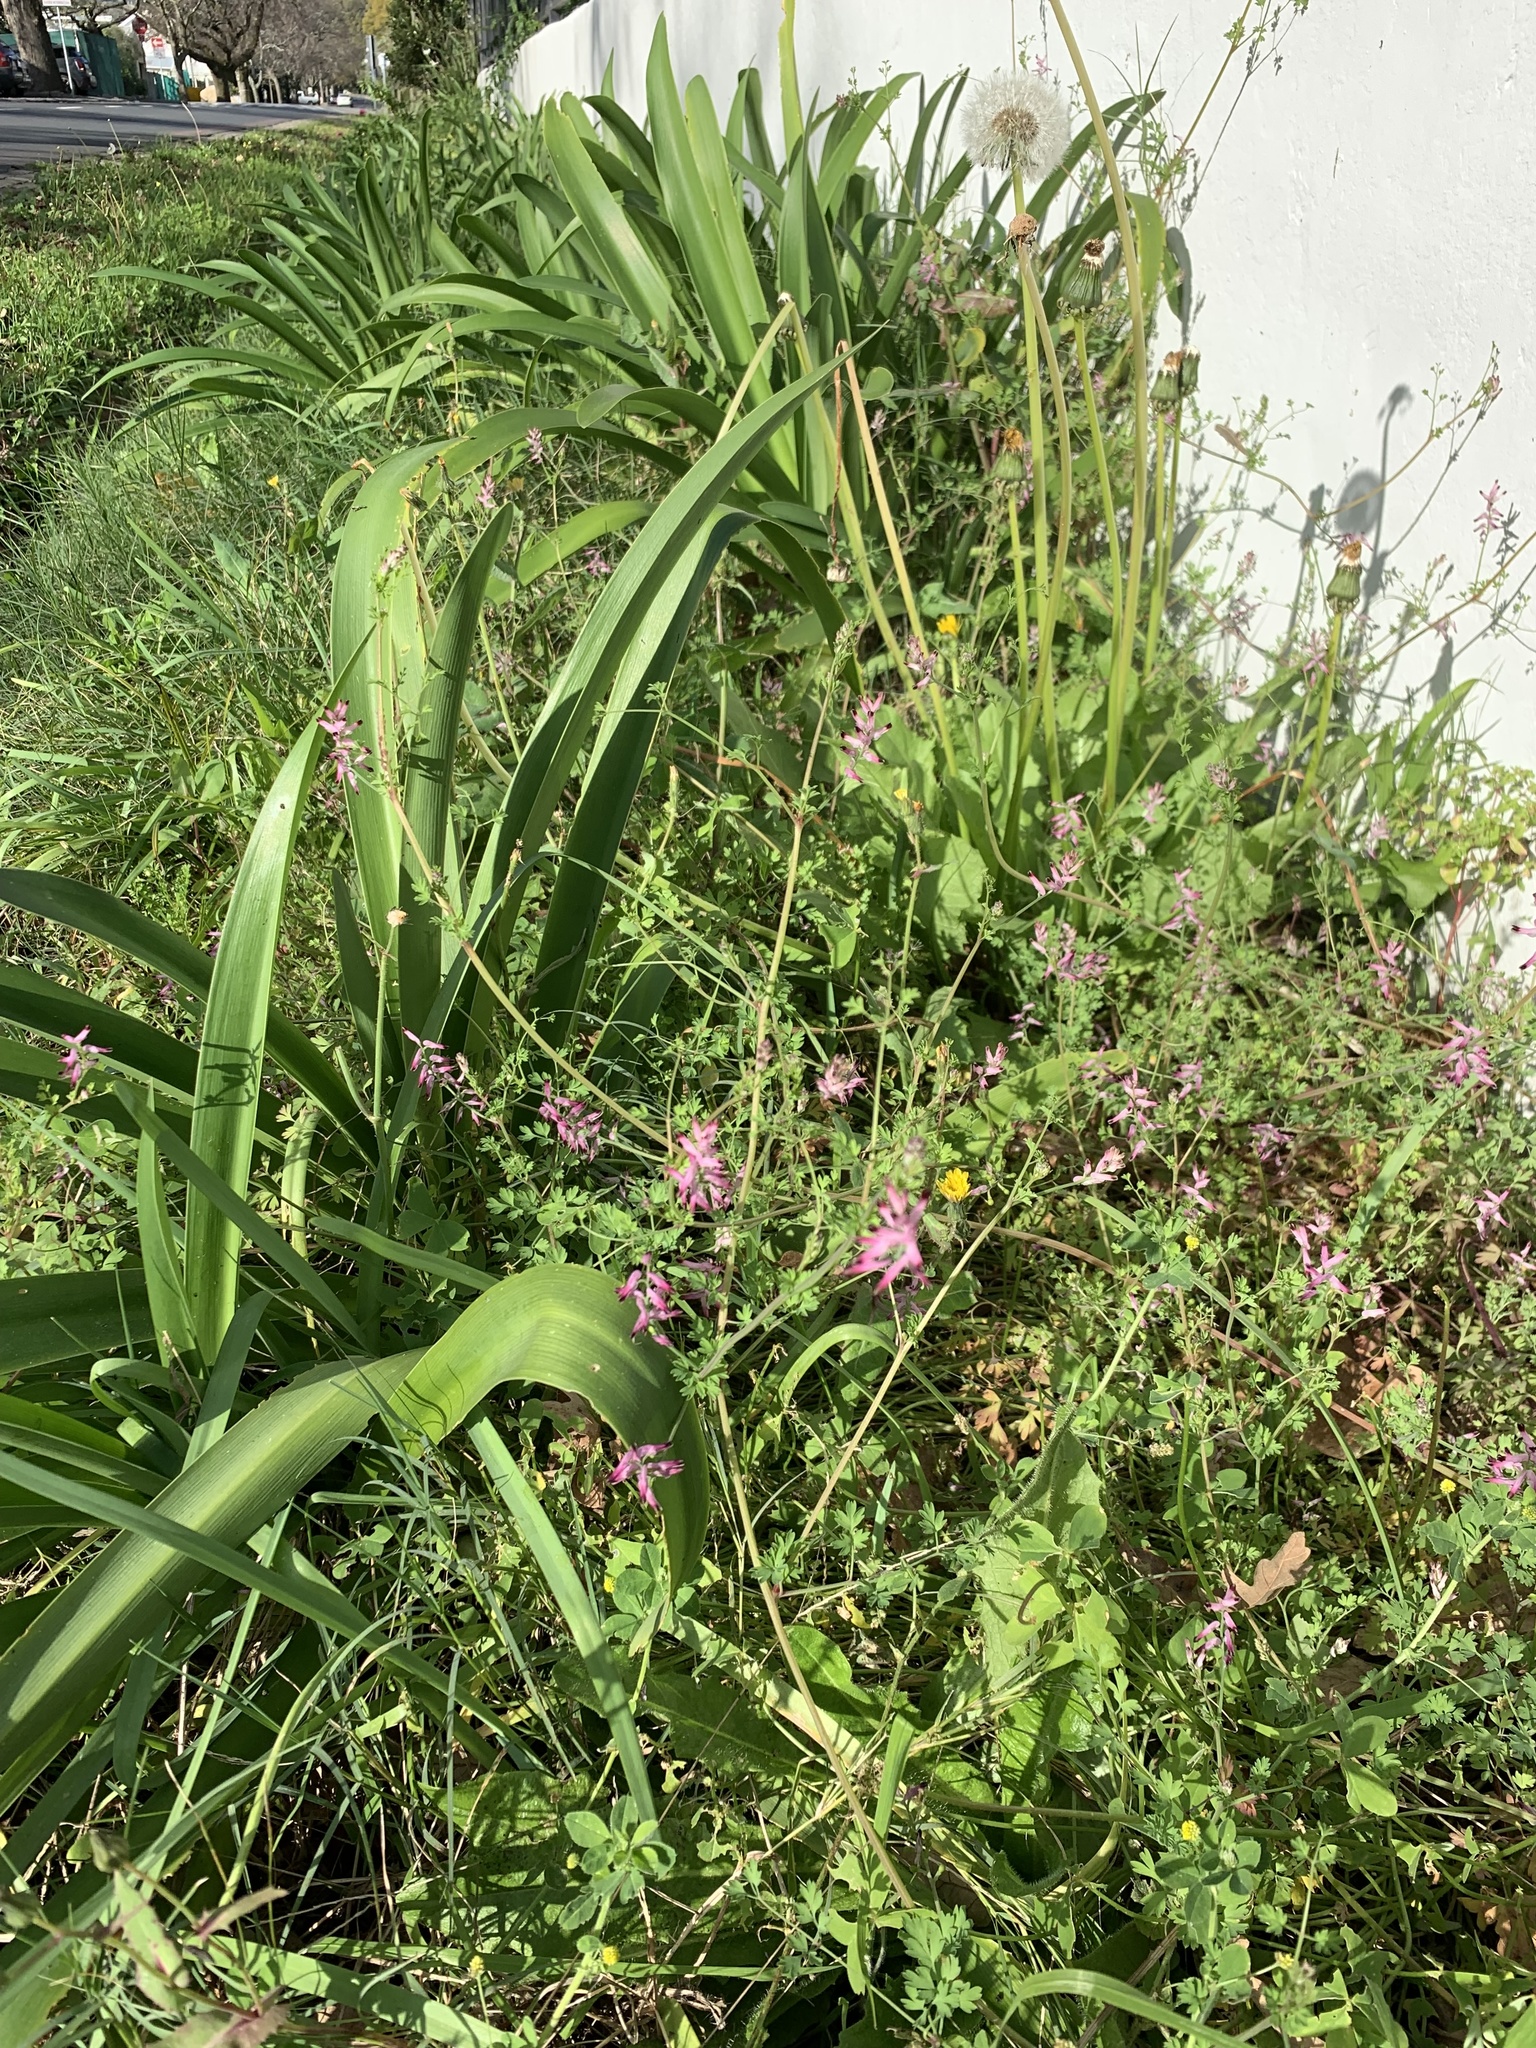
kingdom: Plantae
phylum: Tracheophyta
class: Magnoliopsida
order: Ranunculales
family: Papaveraceae
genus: Fumaria
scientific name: Fumaria muralis
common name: Common ramping-fumitory
